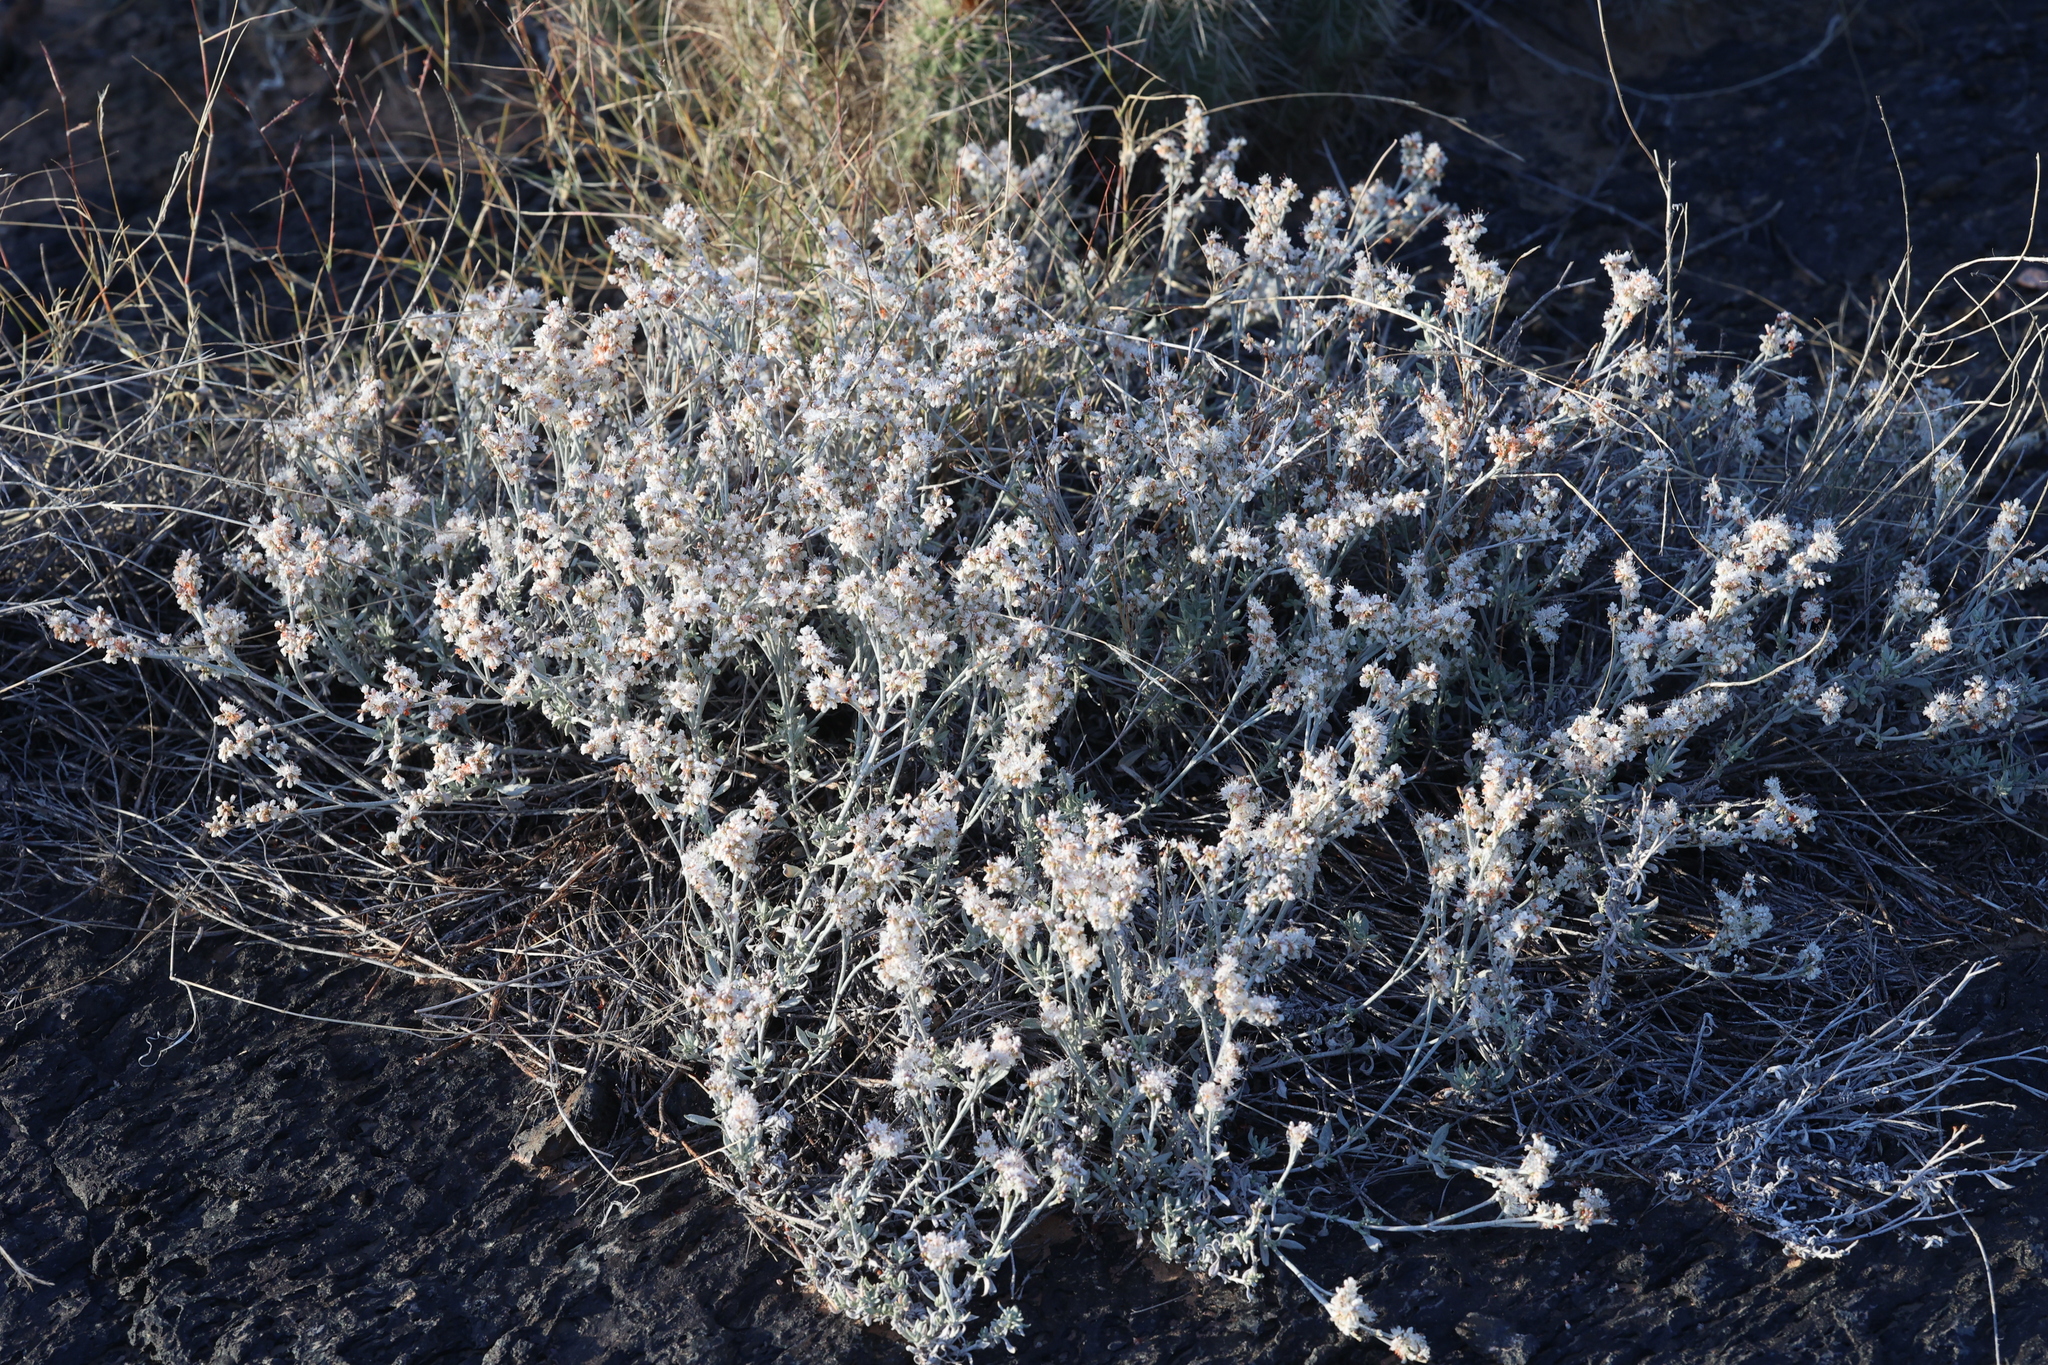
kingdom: Plantae
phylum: Tracheophyta
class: Magnoliopsida
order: Caryophyllales
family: Polygonaceae
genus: Eriogonum
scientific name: Eriogonum wrightii
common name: Bastard-sage
